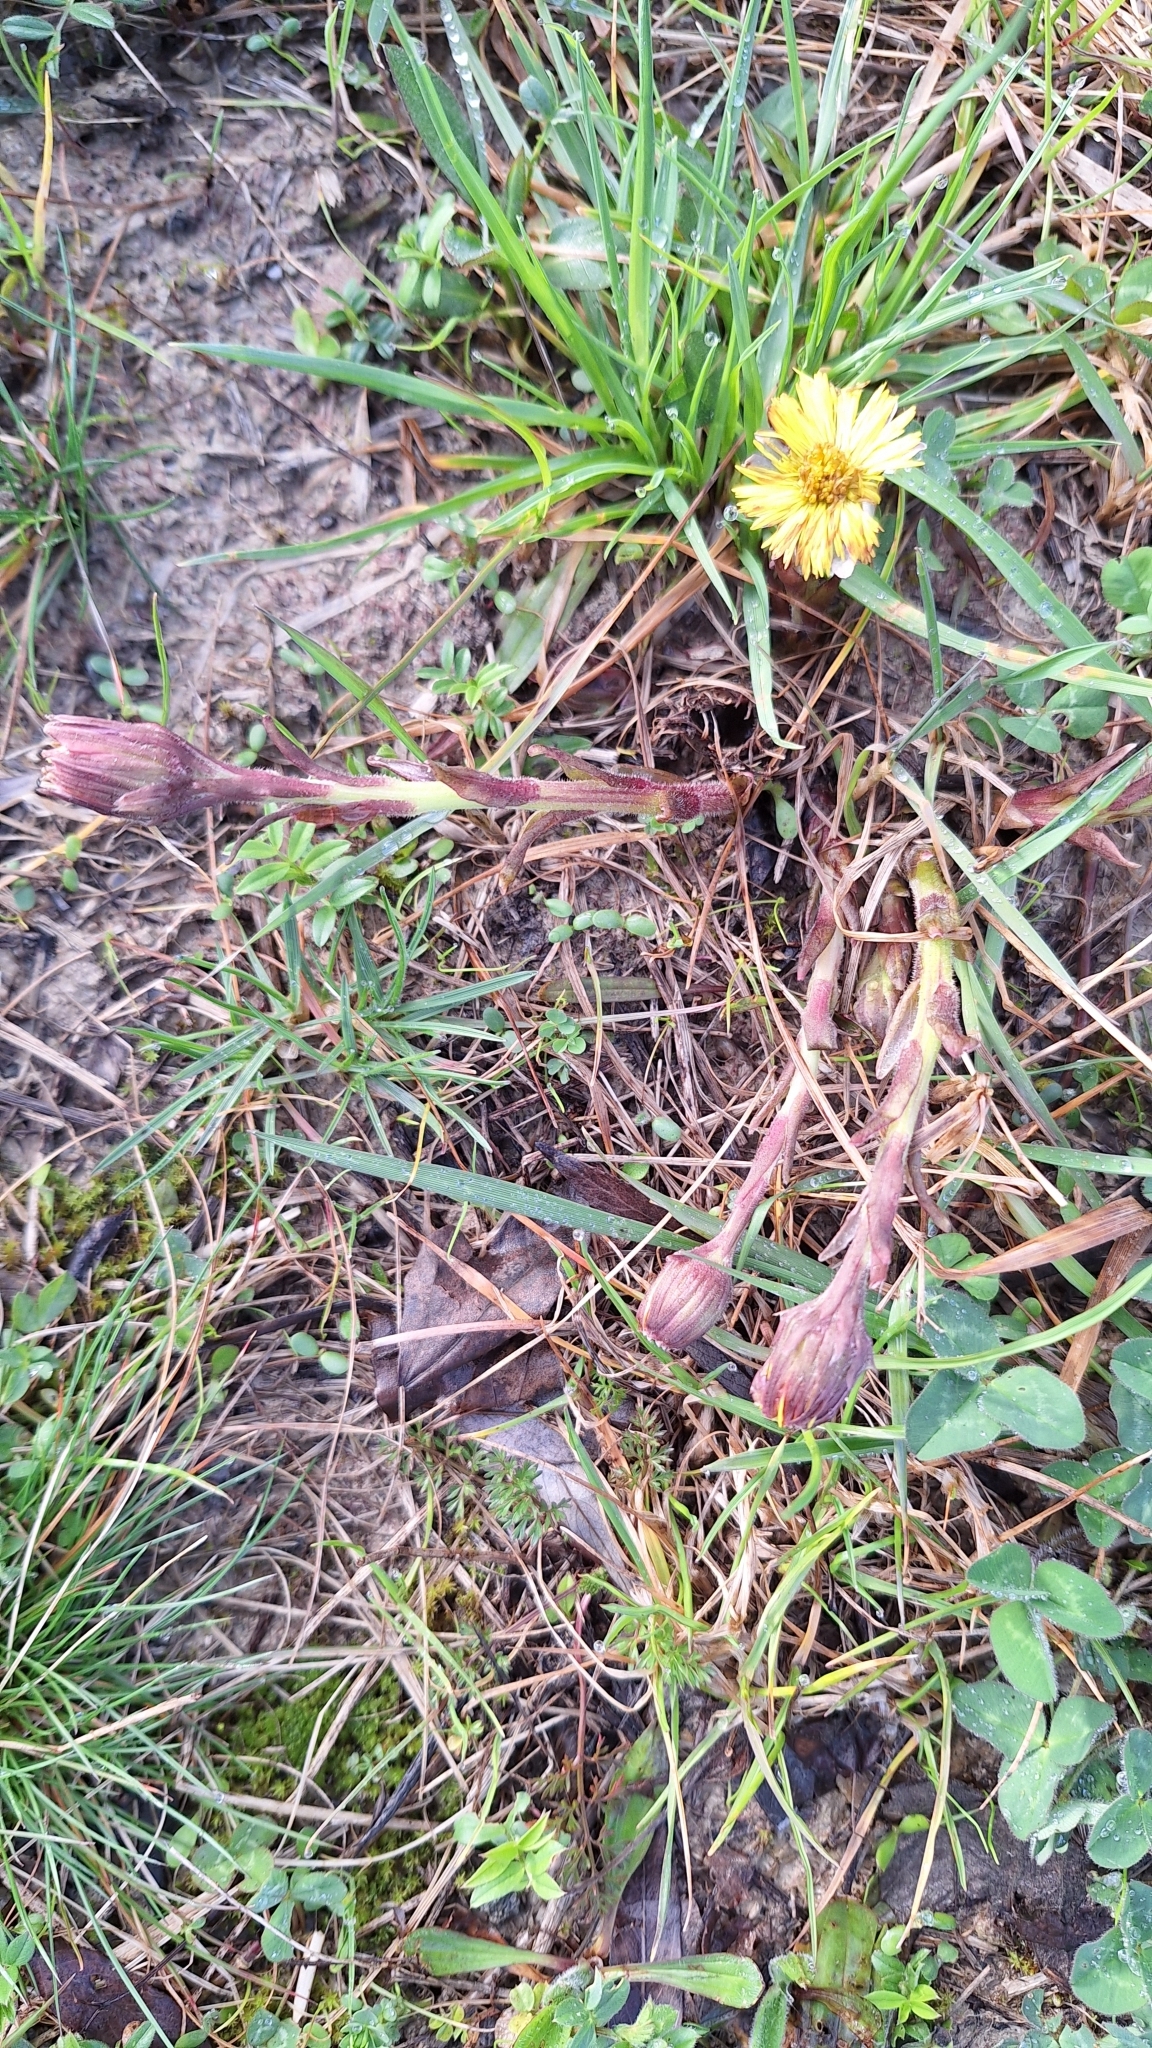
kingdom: Plantae
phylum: Tracheophyta
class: Magnoliopsida
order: Asterales
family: Asteraceae
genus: Tussilago
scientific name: Tussilago farfara
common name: Coltsfoot
